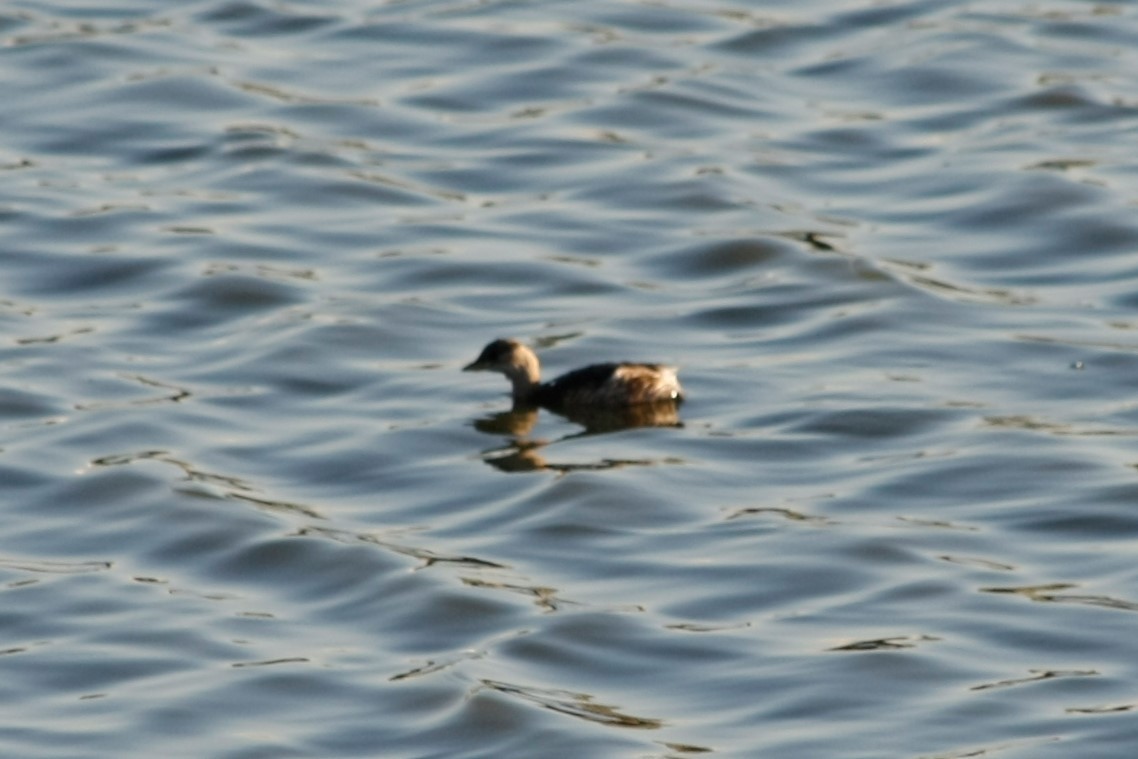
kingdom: Animalia
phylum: Chordata
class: Aves
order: Podicipediformes
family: Podicipedidae
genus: Tachybaptus
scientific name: Tachybaptus ruficollis
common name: Little grebe
